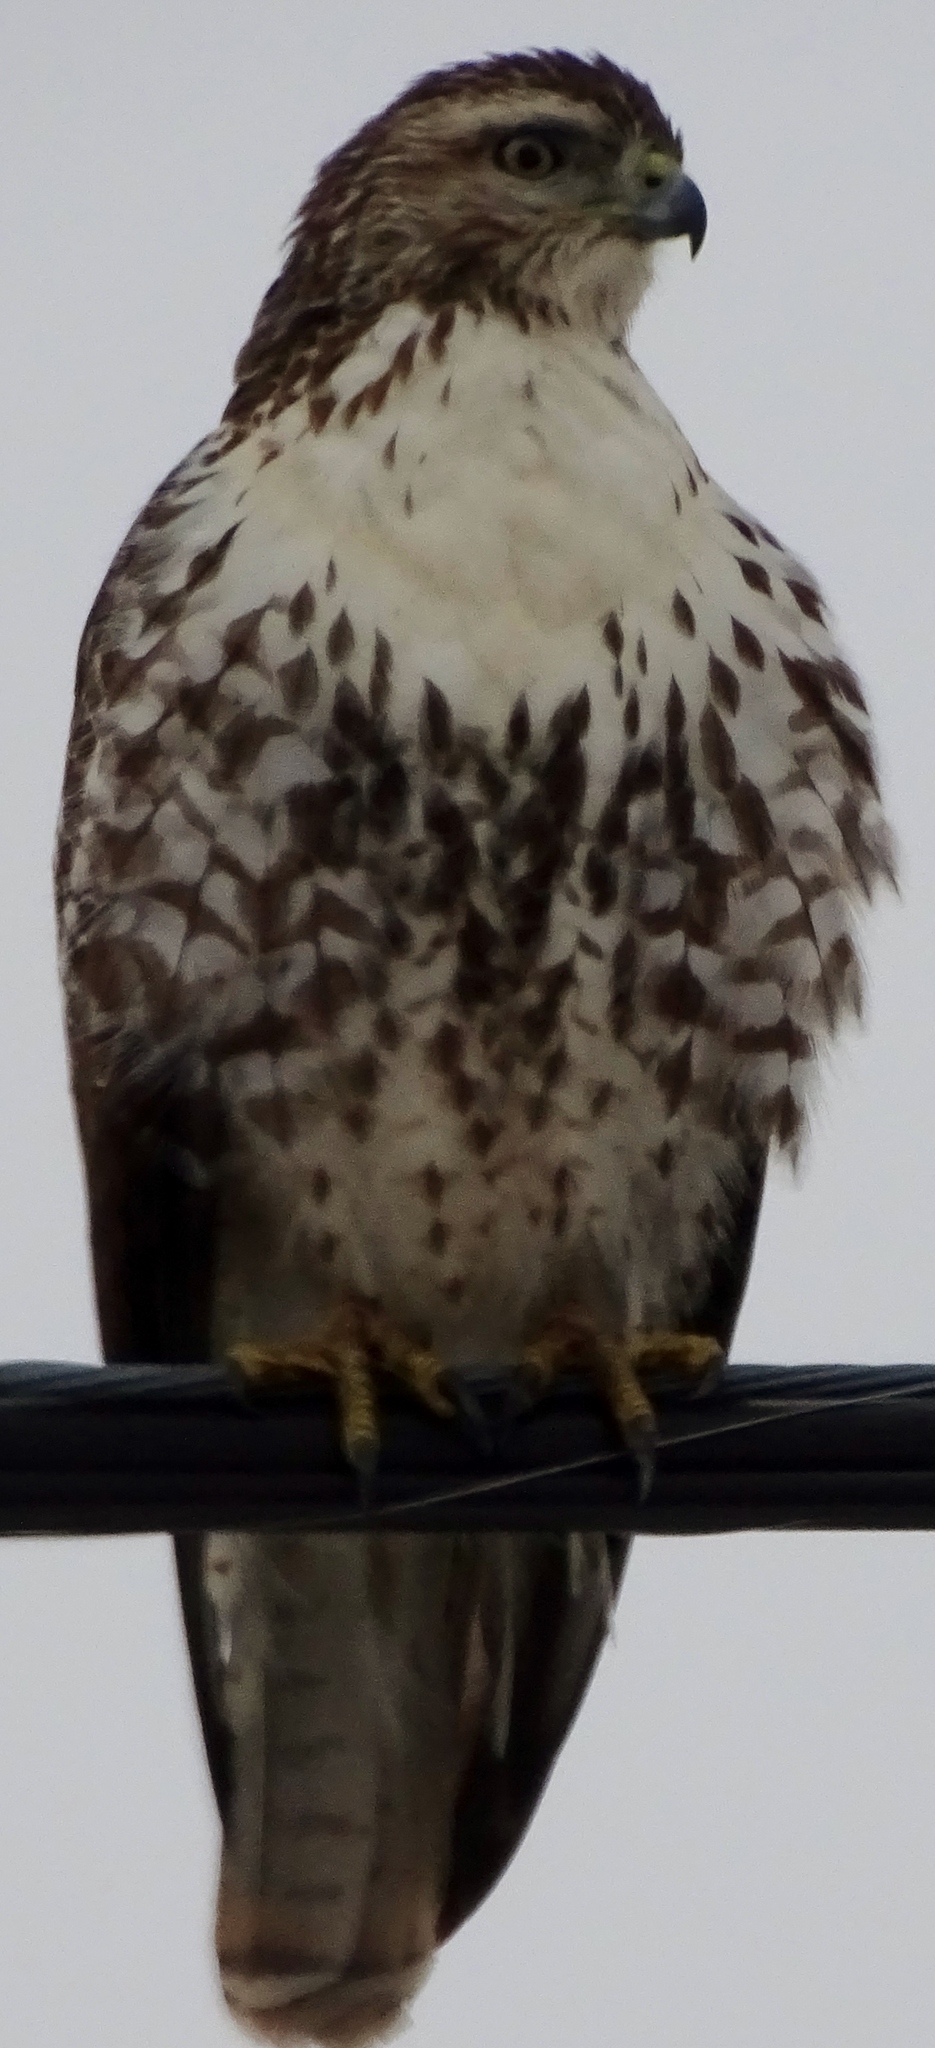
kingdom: Animalia
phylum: Chordata
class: Aves
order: Accipitriformes
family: Accipitridae
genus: Buteo
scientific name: Buteo jamaicensis
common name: Red-tailed hawk
